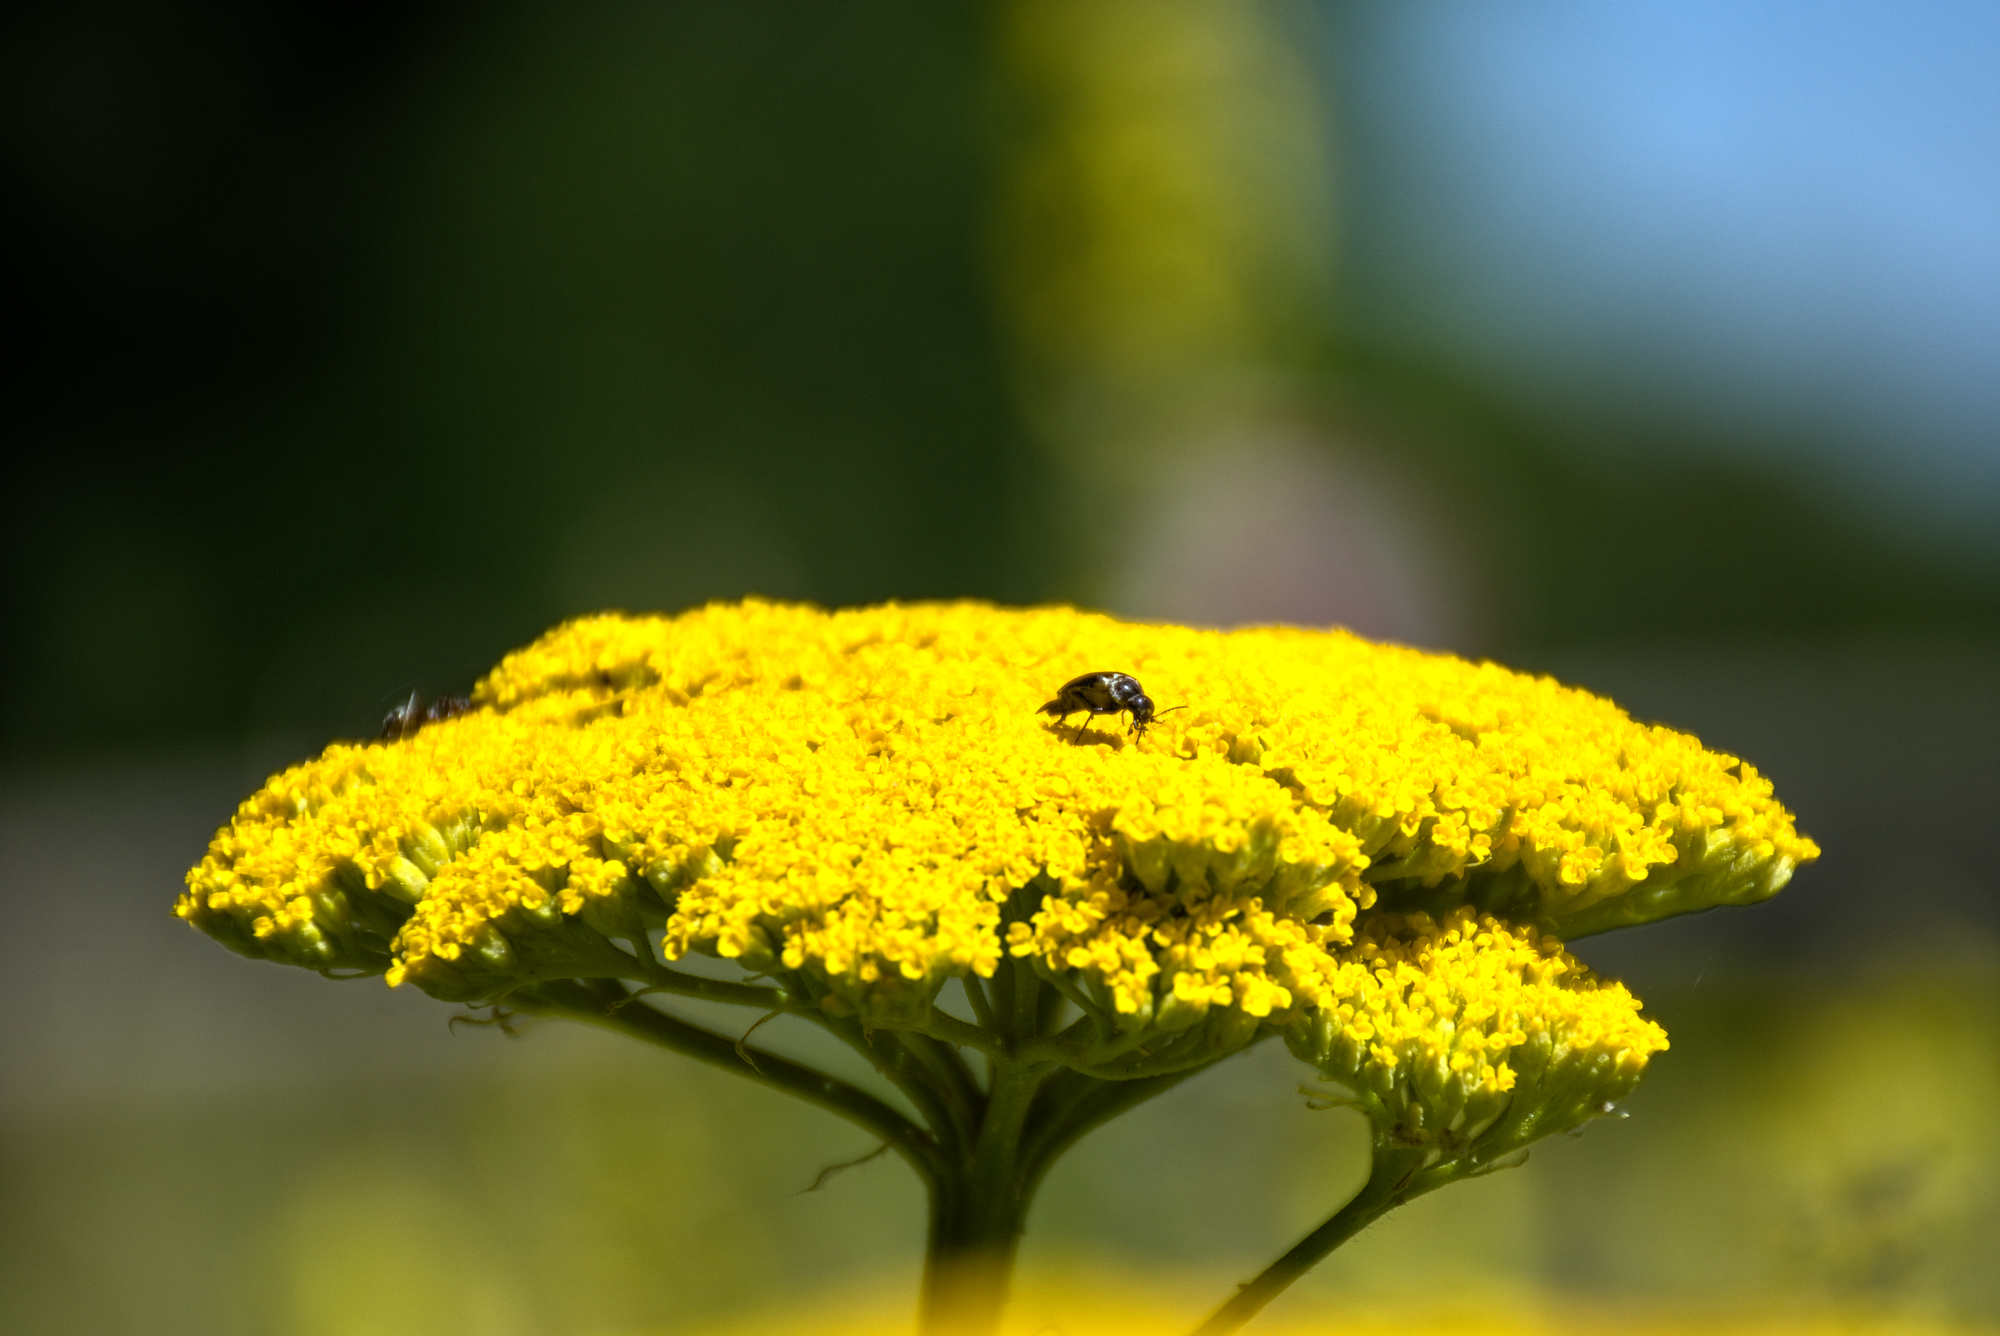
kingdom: Plantae
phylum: Tracheophyta
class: Magnoliopsida
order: Asterales
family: Asteraceae
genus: Achillea
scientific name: Achillea filipendulina
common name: Fernleaf yarrow
